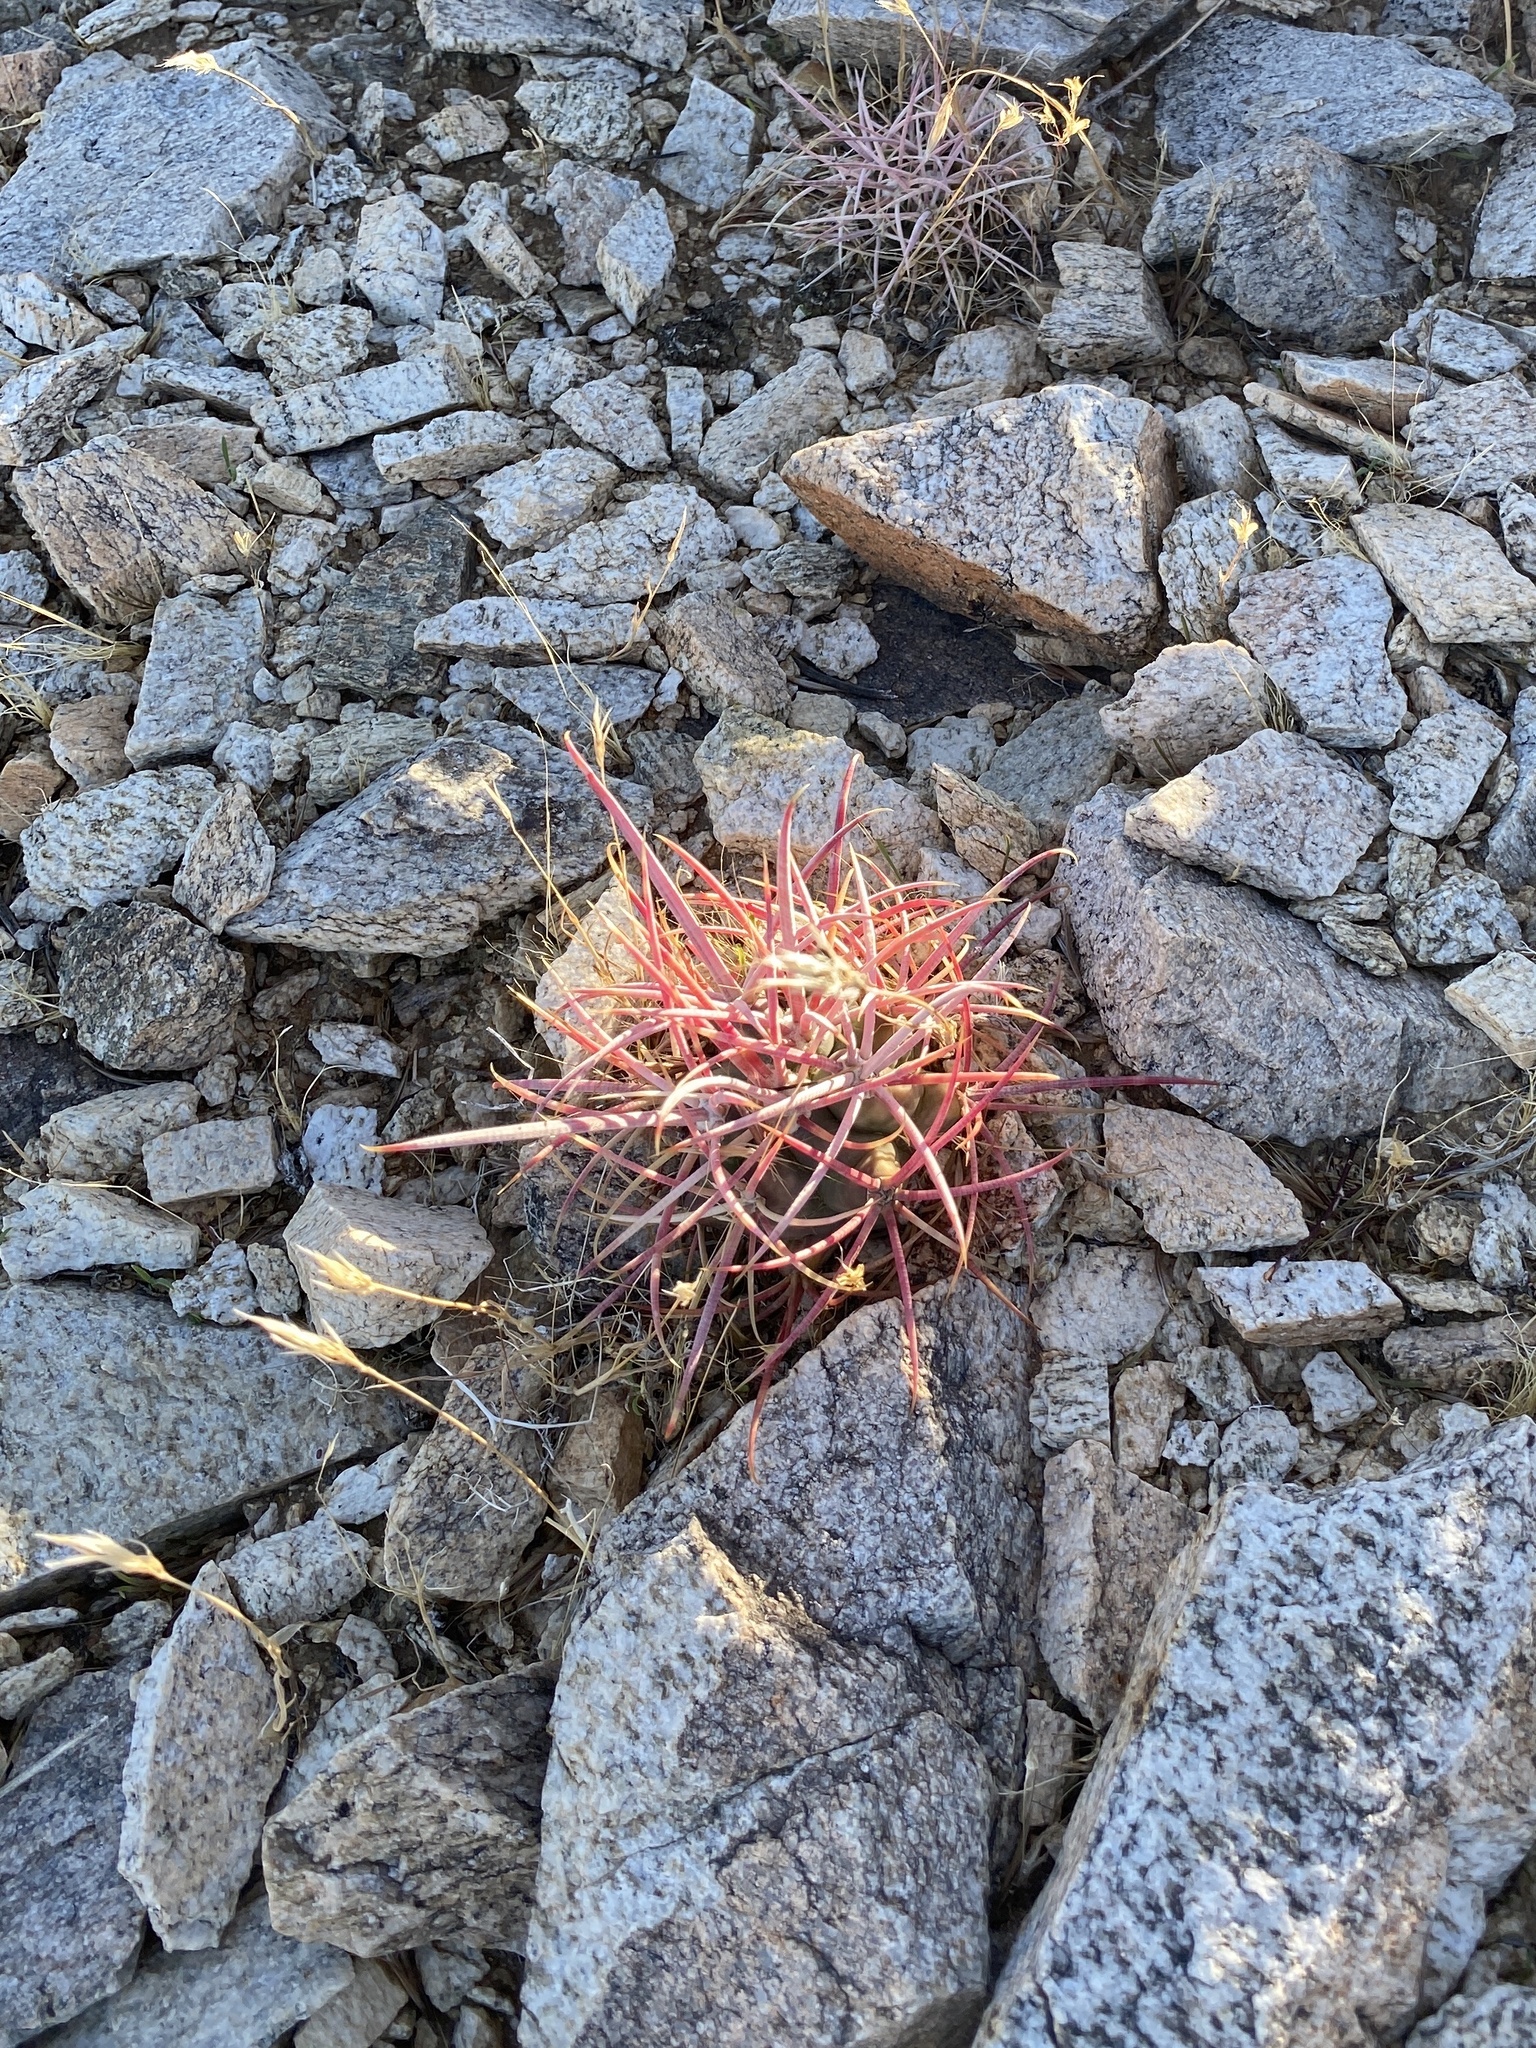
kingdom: Plantae
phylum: Tracheophyta
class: Magnoliopsida
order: Caryophyllales
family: Cactaceae
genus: Ferocactus
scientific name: Ferocactus cylindraceus
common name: California barrel cactus
